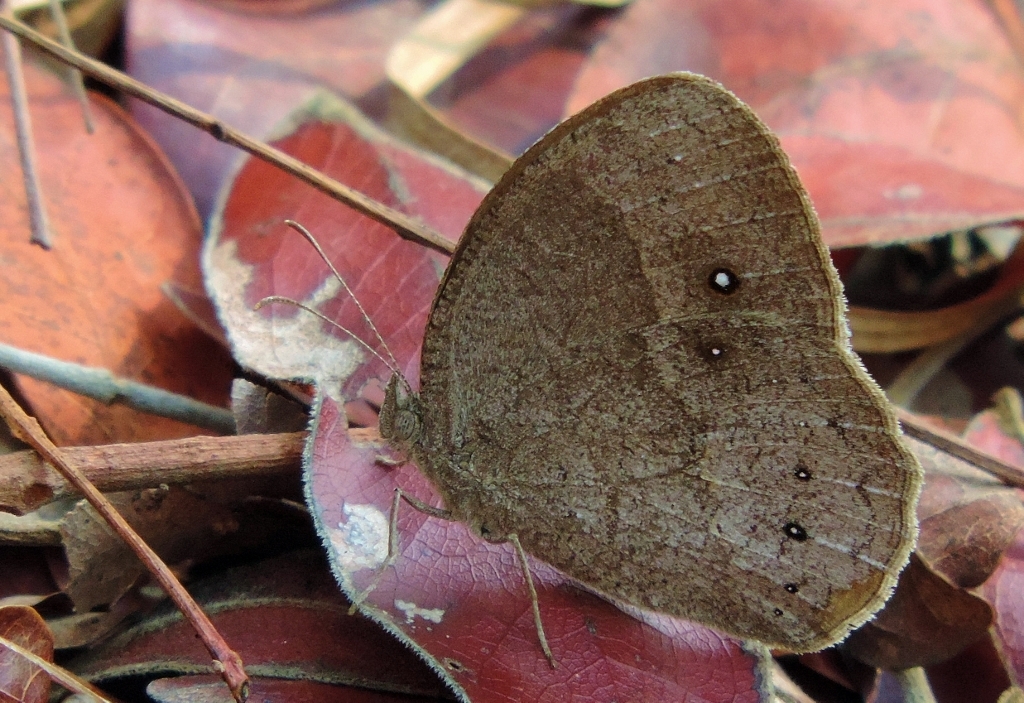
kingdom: Animalia
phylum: Arthropoda
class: Insecta
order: Lepidoptera
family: Nymphalidae
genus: Bicyclus
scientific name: Bicyclus angulosa
